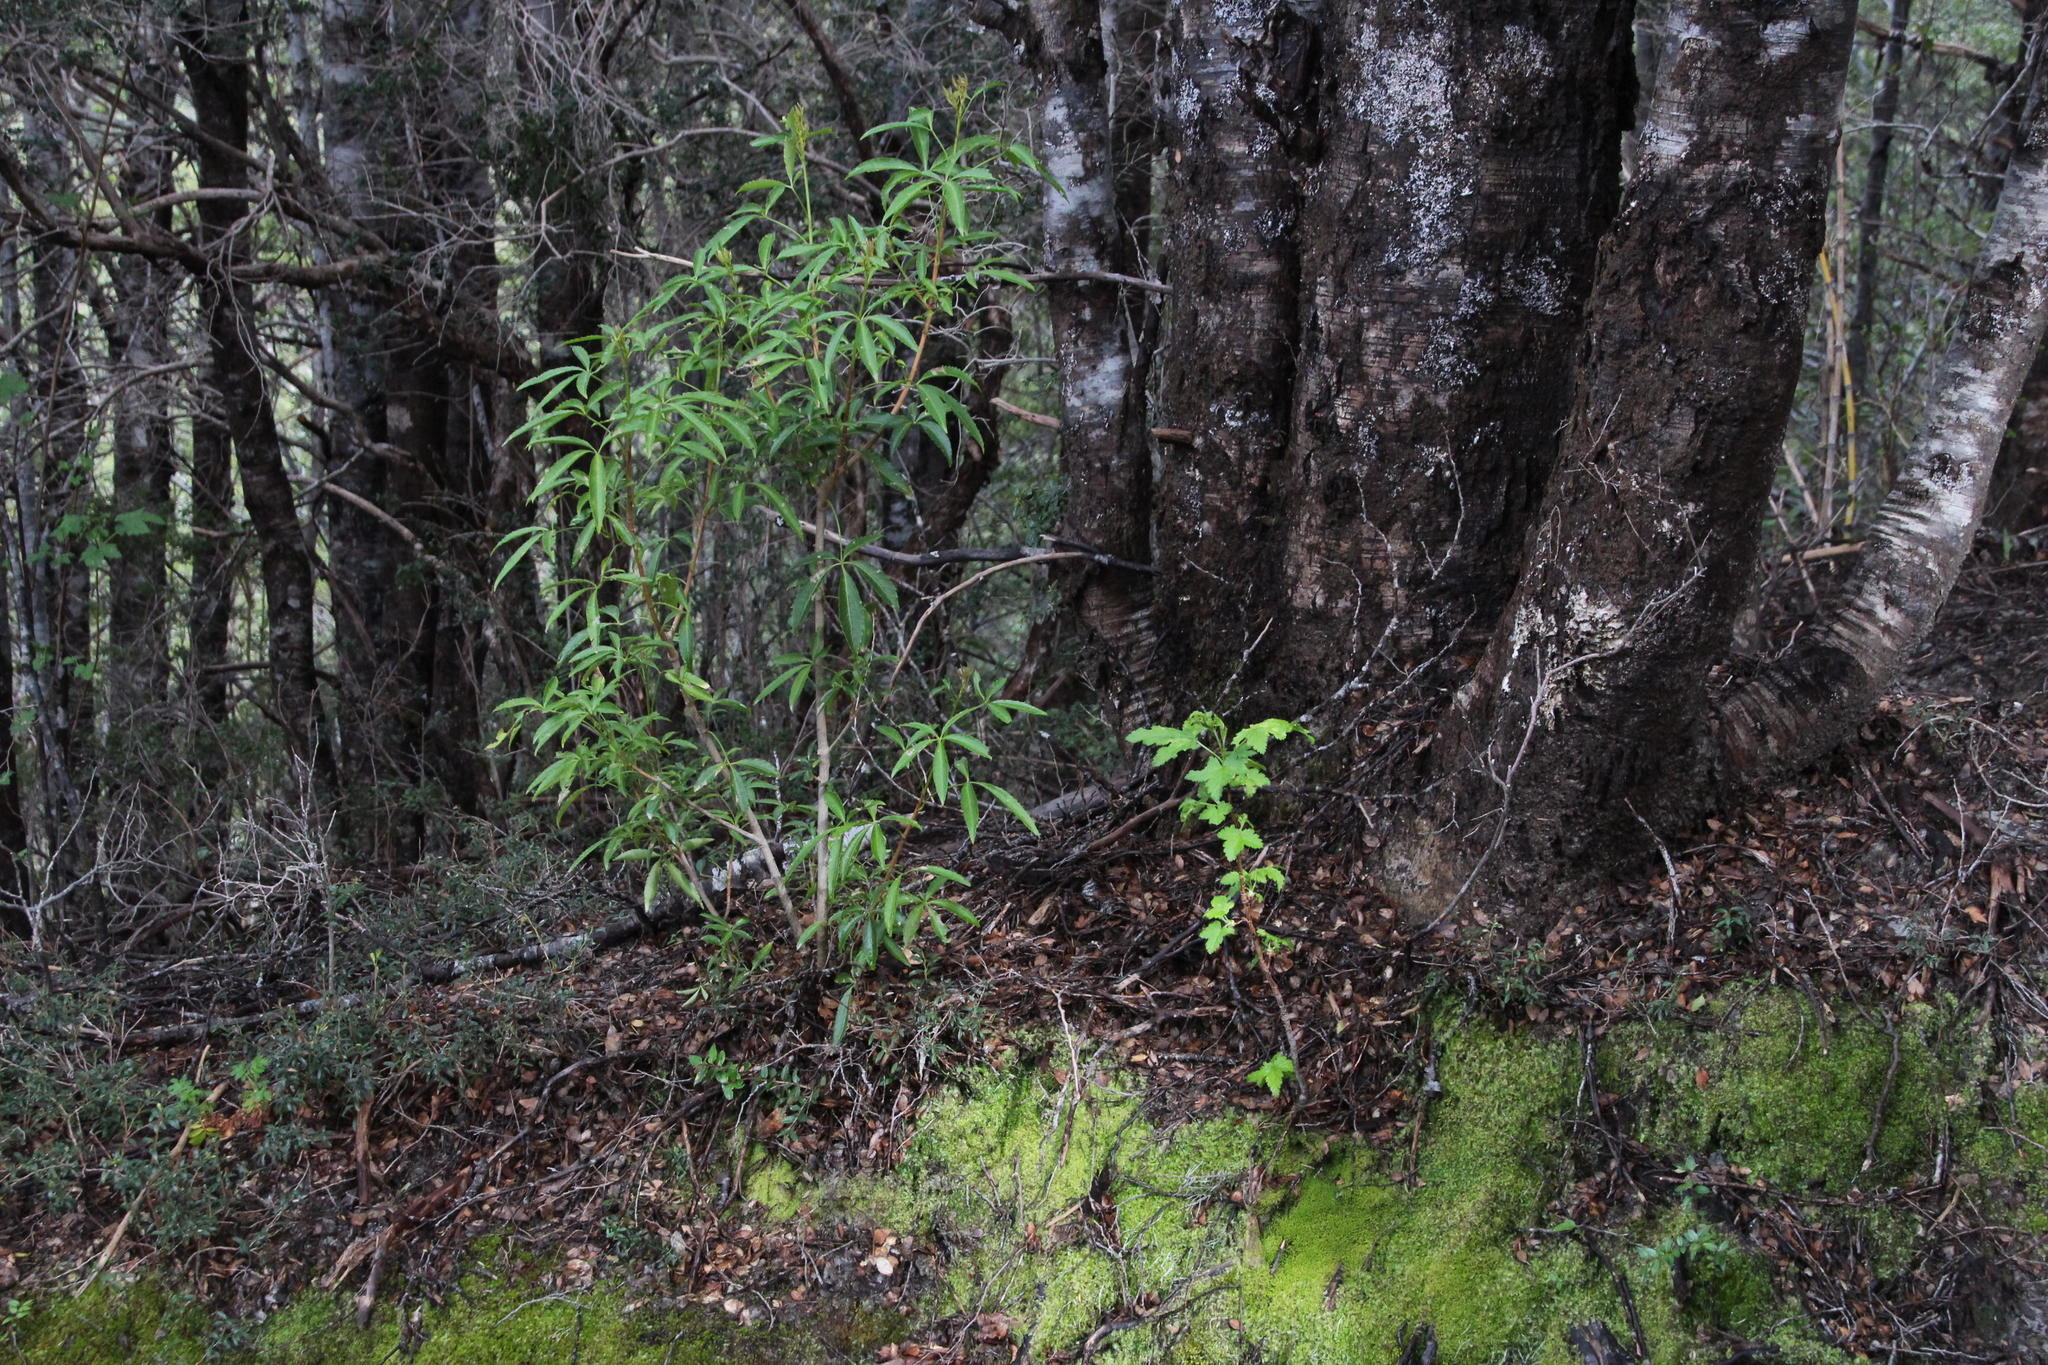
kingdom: Plantae
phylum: Tracheophyta
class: Magnoliopsida
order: Apiales
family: Araliaceae
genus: Raukaua
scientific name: Raukaua laetevirens
